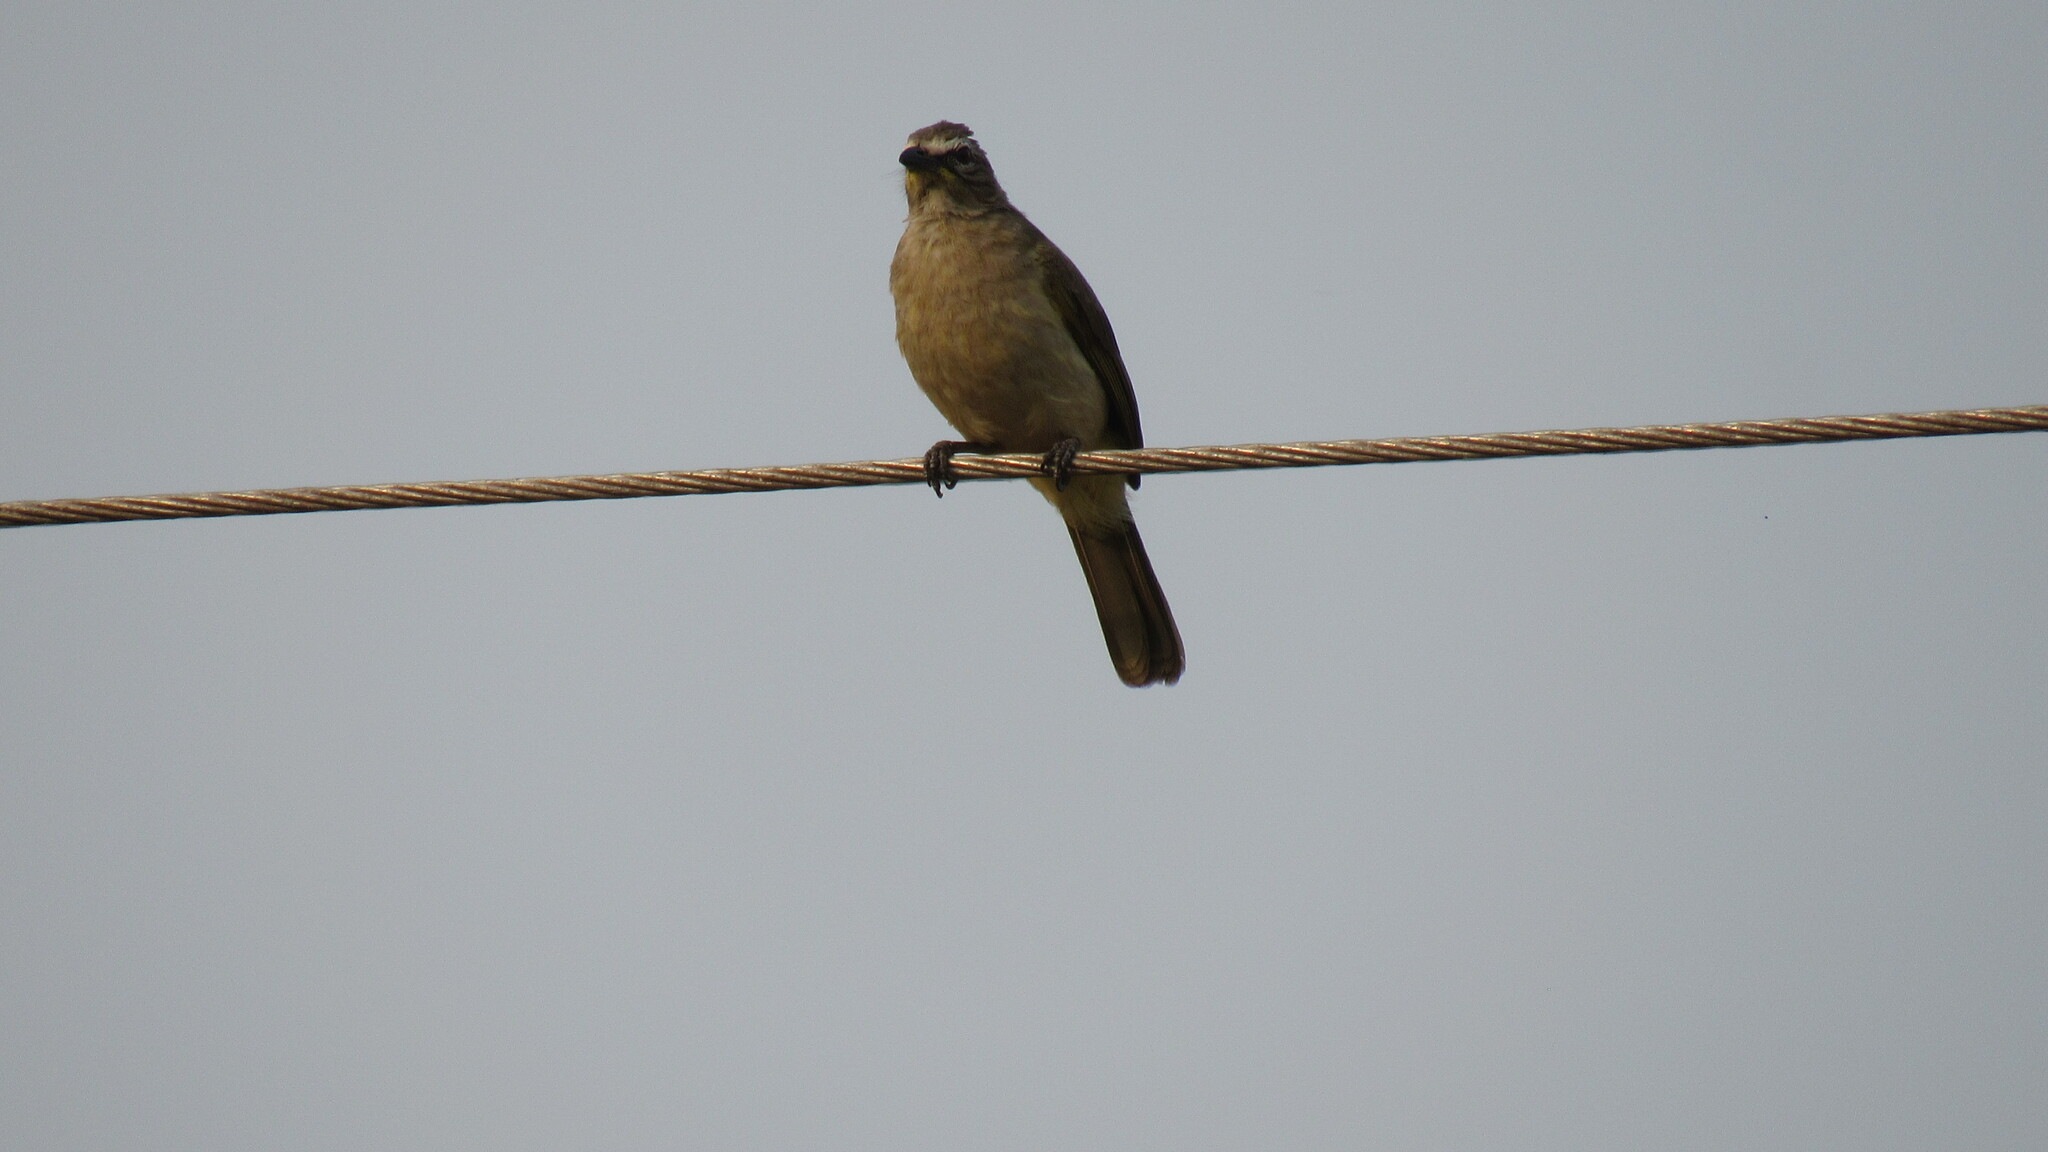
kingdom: Animalia
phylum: Chordata
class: Aves
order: Passeriformes
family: Pycnonotidae
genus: Pycnonotus
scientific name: Pycnonotus luteolus
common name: White-browed bulbul
